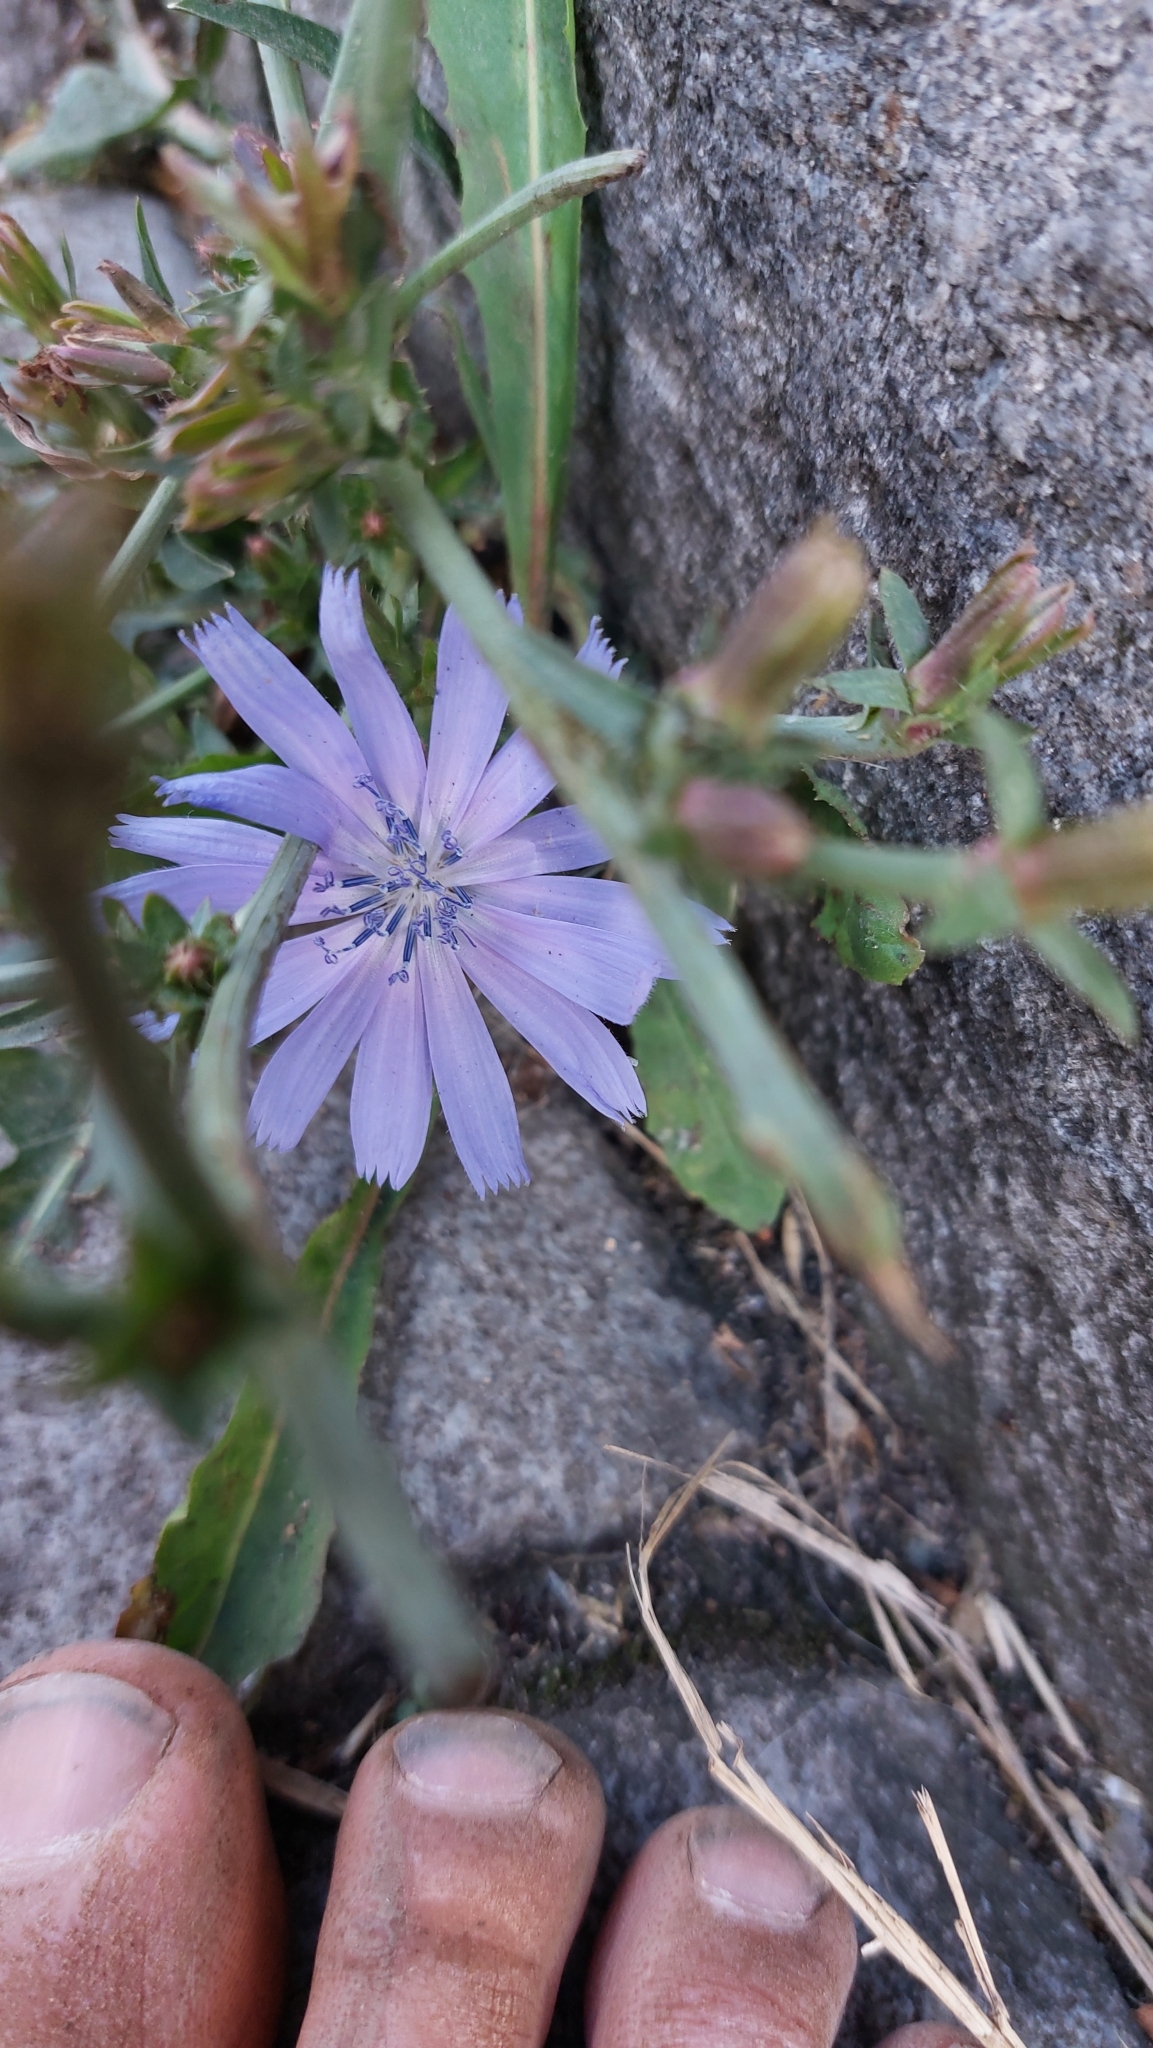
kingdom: Plantae
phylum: Tracheophyta
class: Magnoliopsida
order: Asterales
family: Asteraceae
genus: Cichorium
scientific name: Cichorium intybus
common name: Chicory
